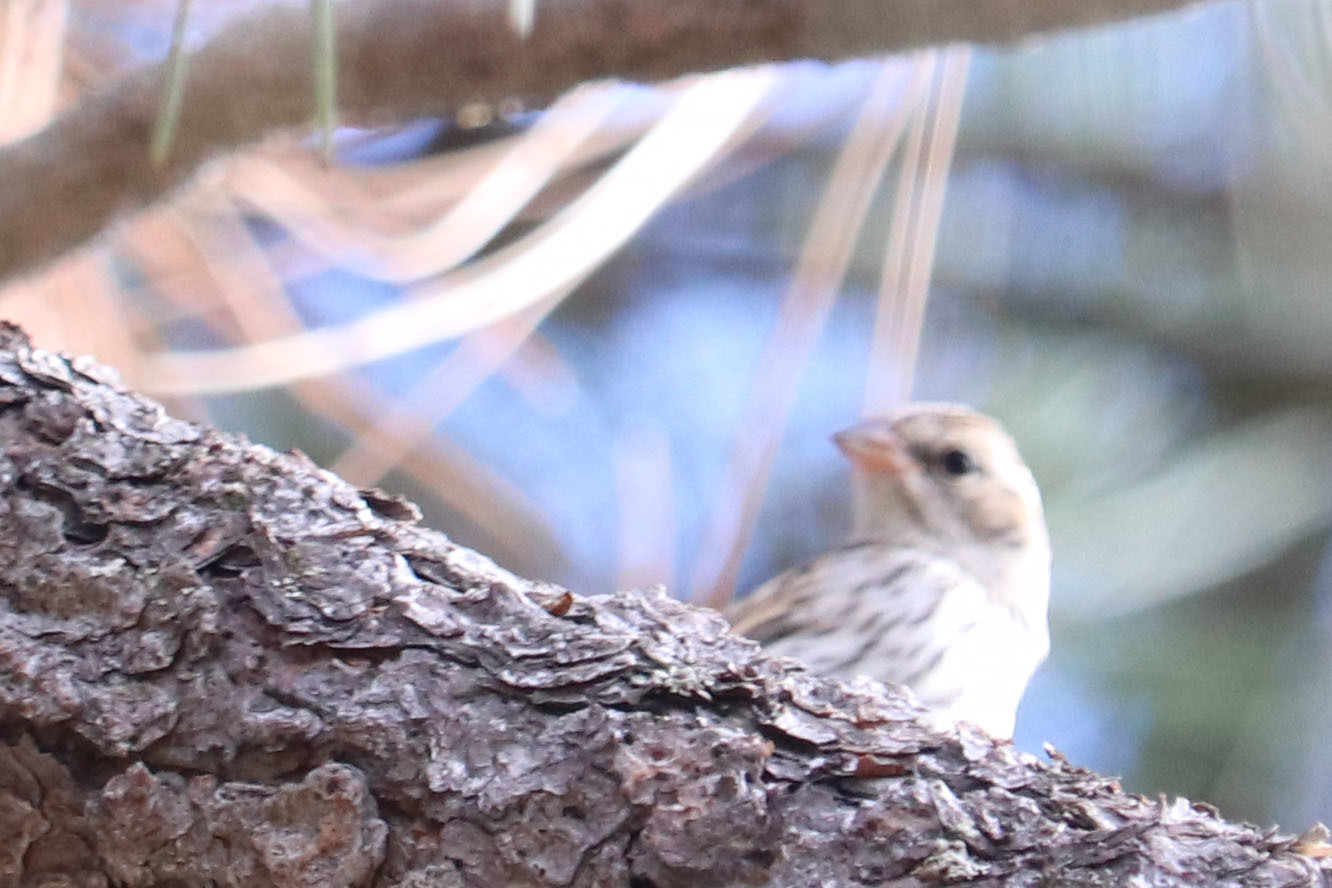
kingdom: Animalia
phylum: Chordata
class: Aves
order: Passeriformes
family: Passerellidae
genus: Spizella
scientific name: Spizella passerina
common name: Chipping sparrow
